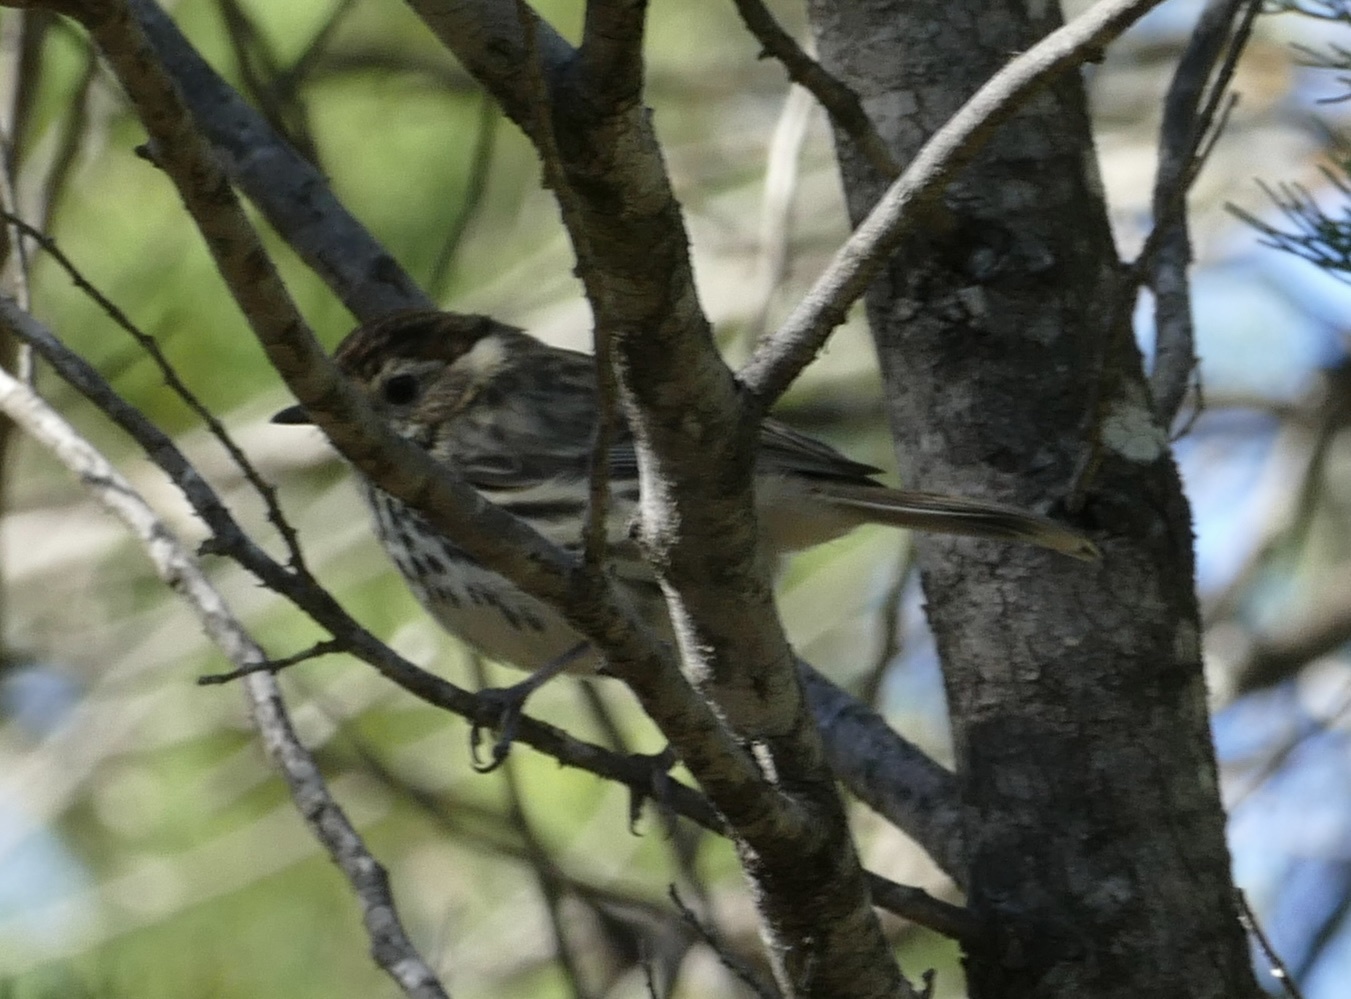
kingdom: Animalia
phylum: Chordata
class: Aves
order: Passeriformes
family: Acanthizidae
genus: Pyrrholaemus
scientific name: Pyrrholaemus sagittatus
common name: Speckled warbler
